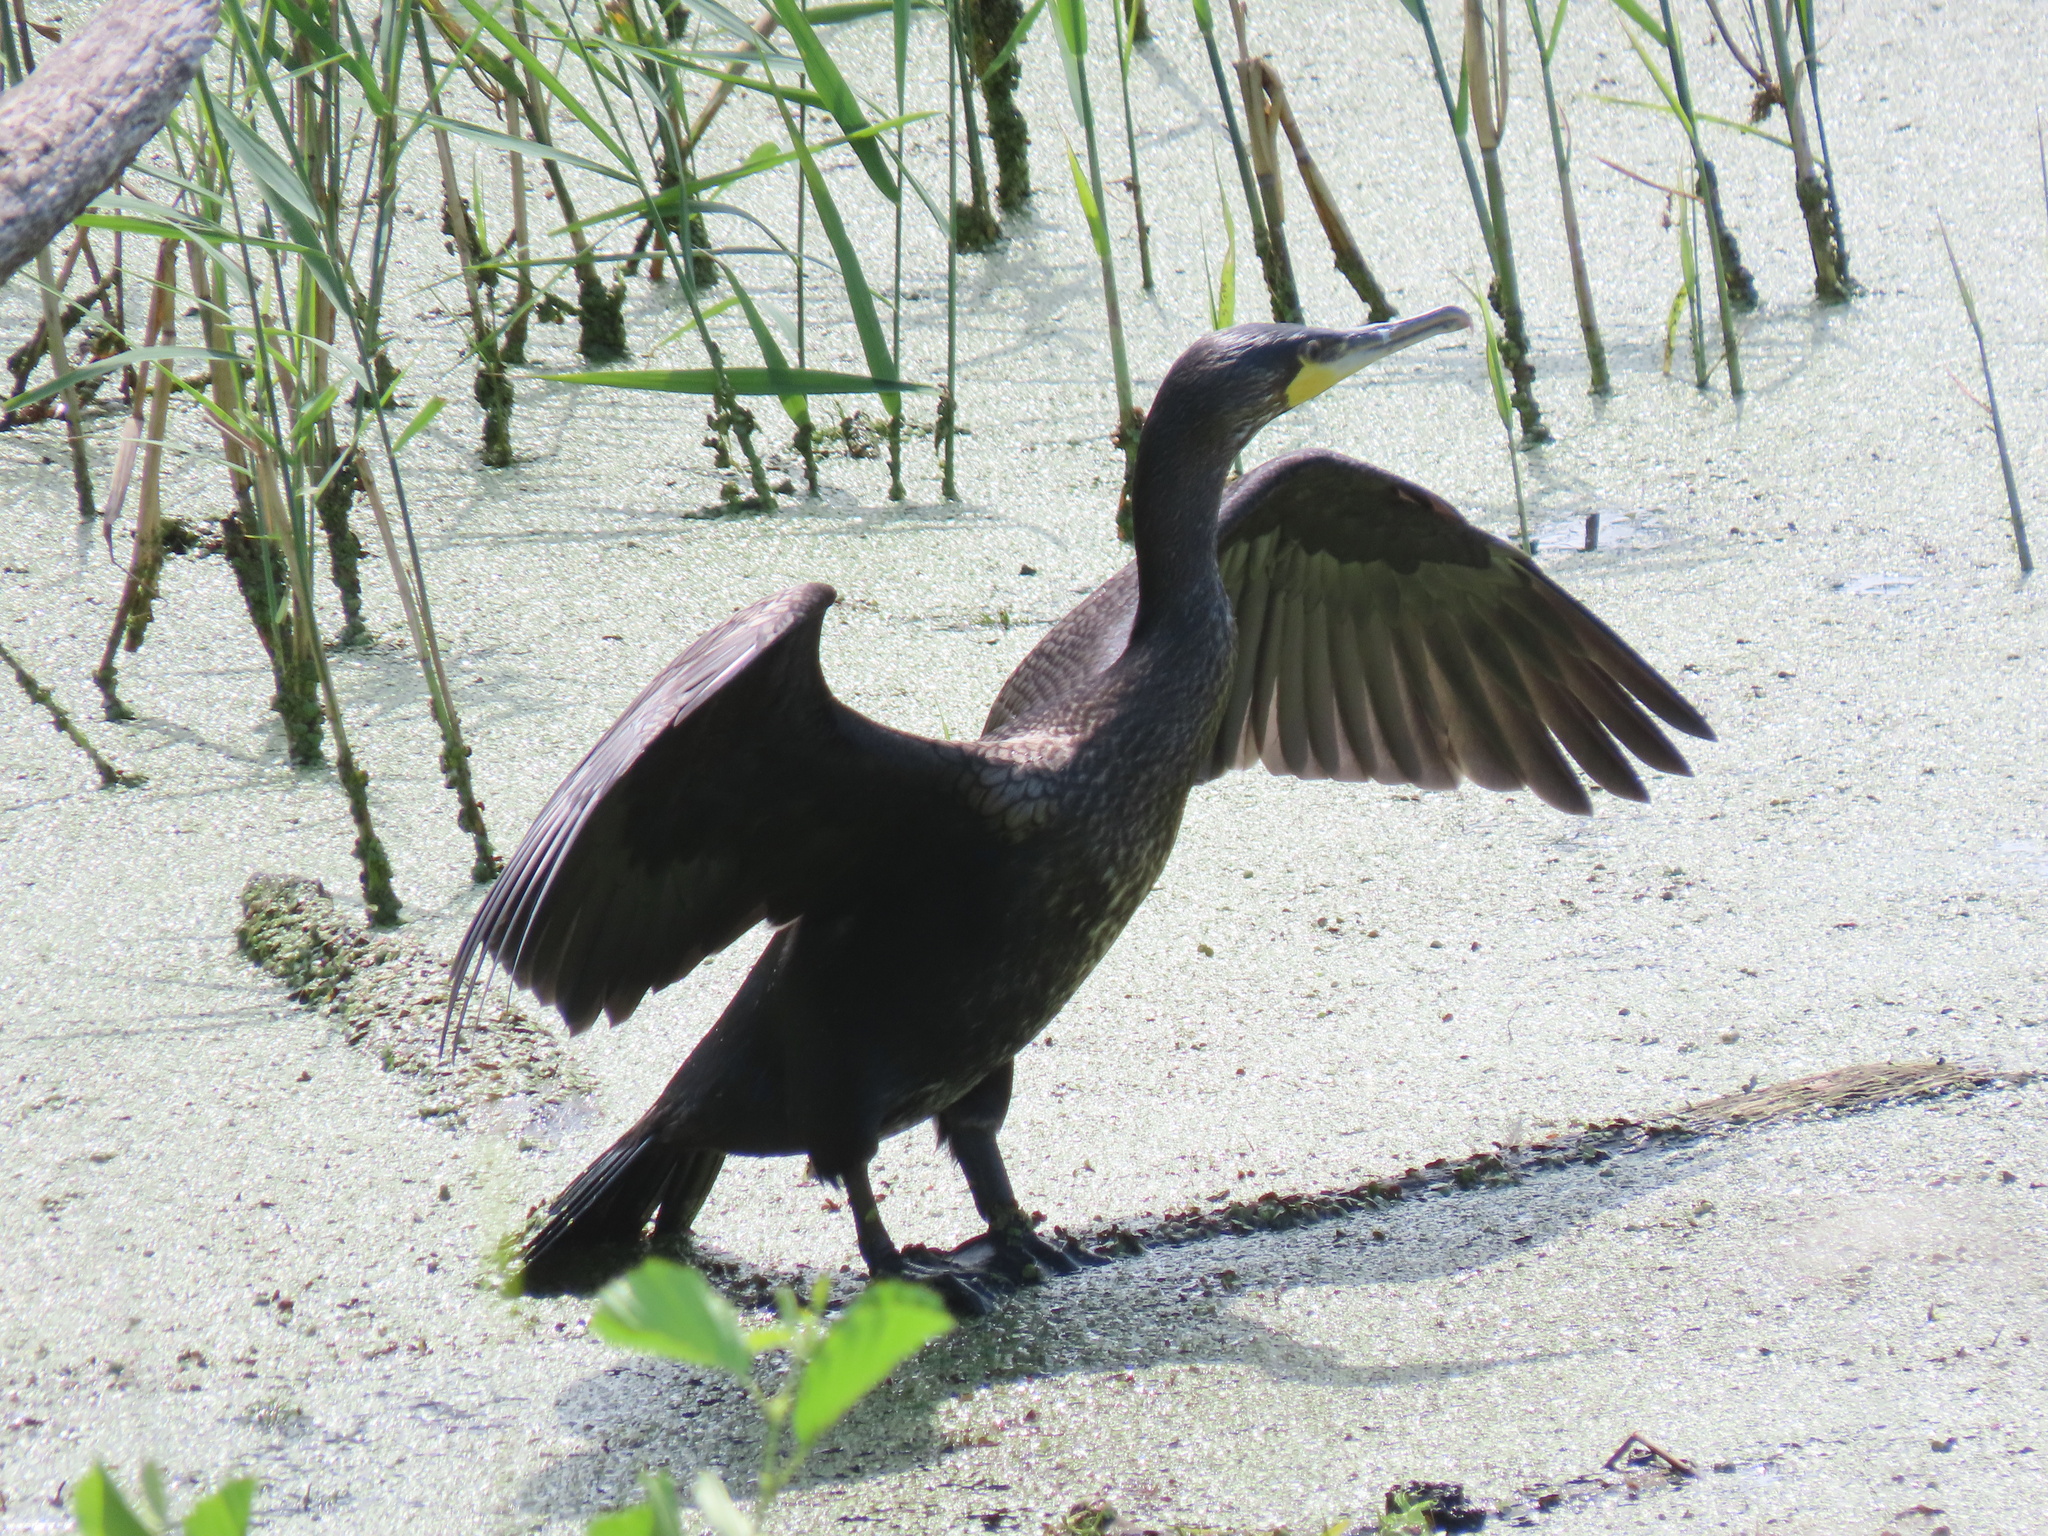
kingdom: Animalia
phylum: Chordata
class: Aves
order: Suliformes
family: Phalacrocoracidae
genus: Phalacrocorax
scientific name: Phalacrocorax carbo
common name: Great cormorant
